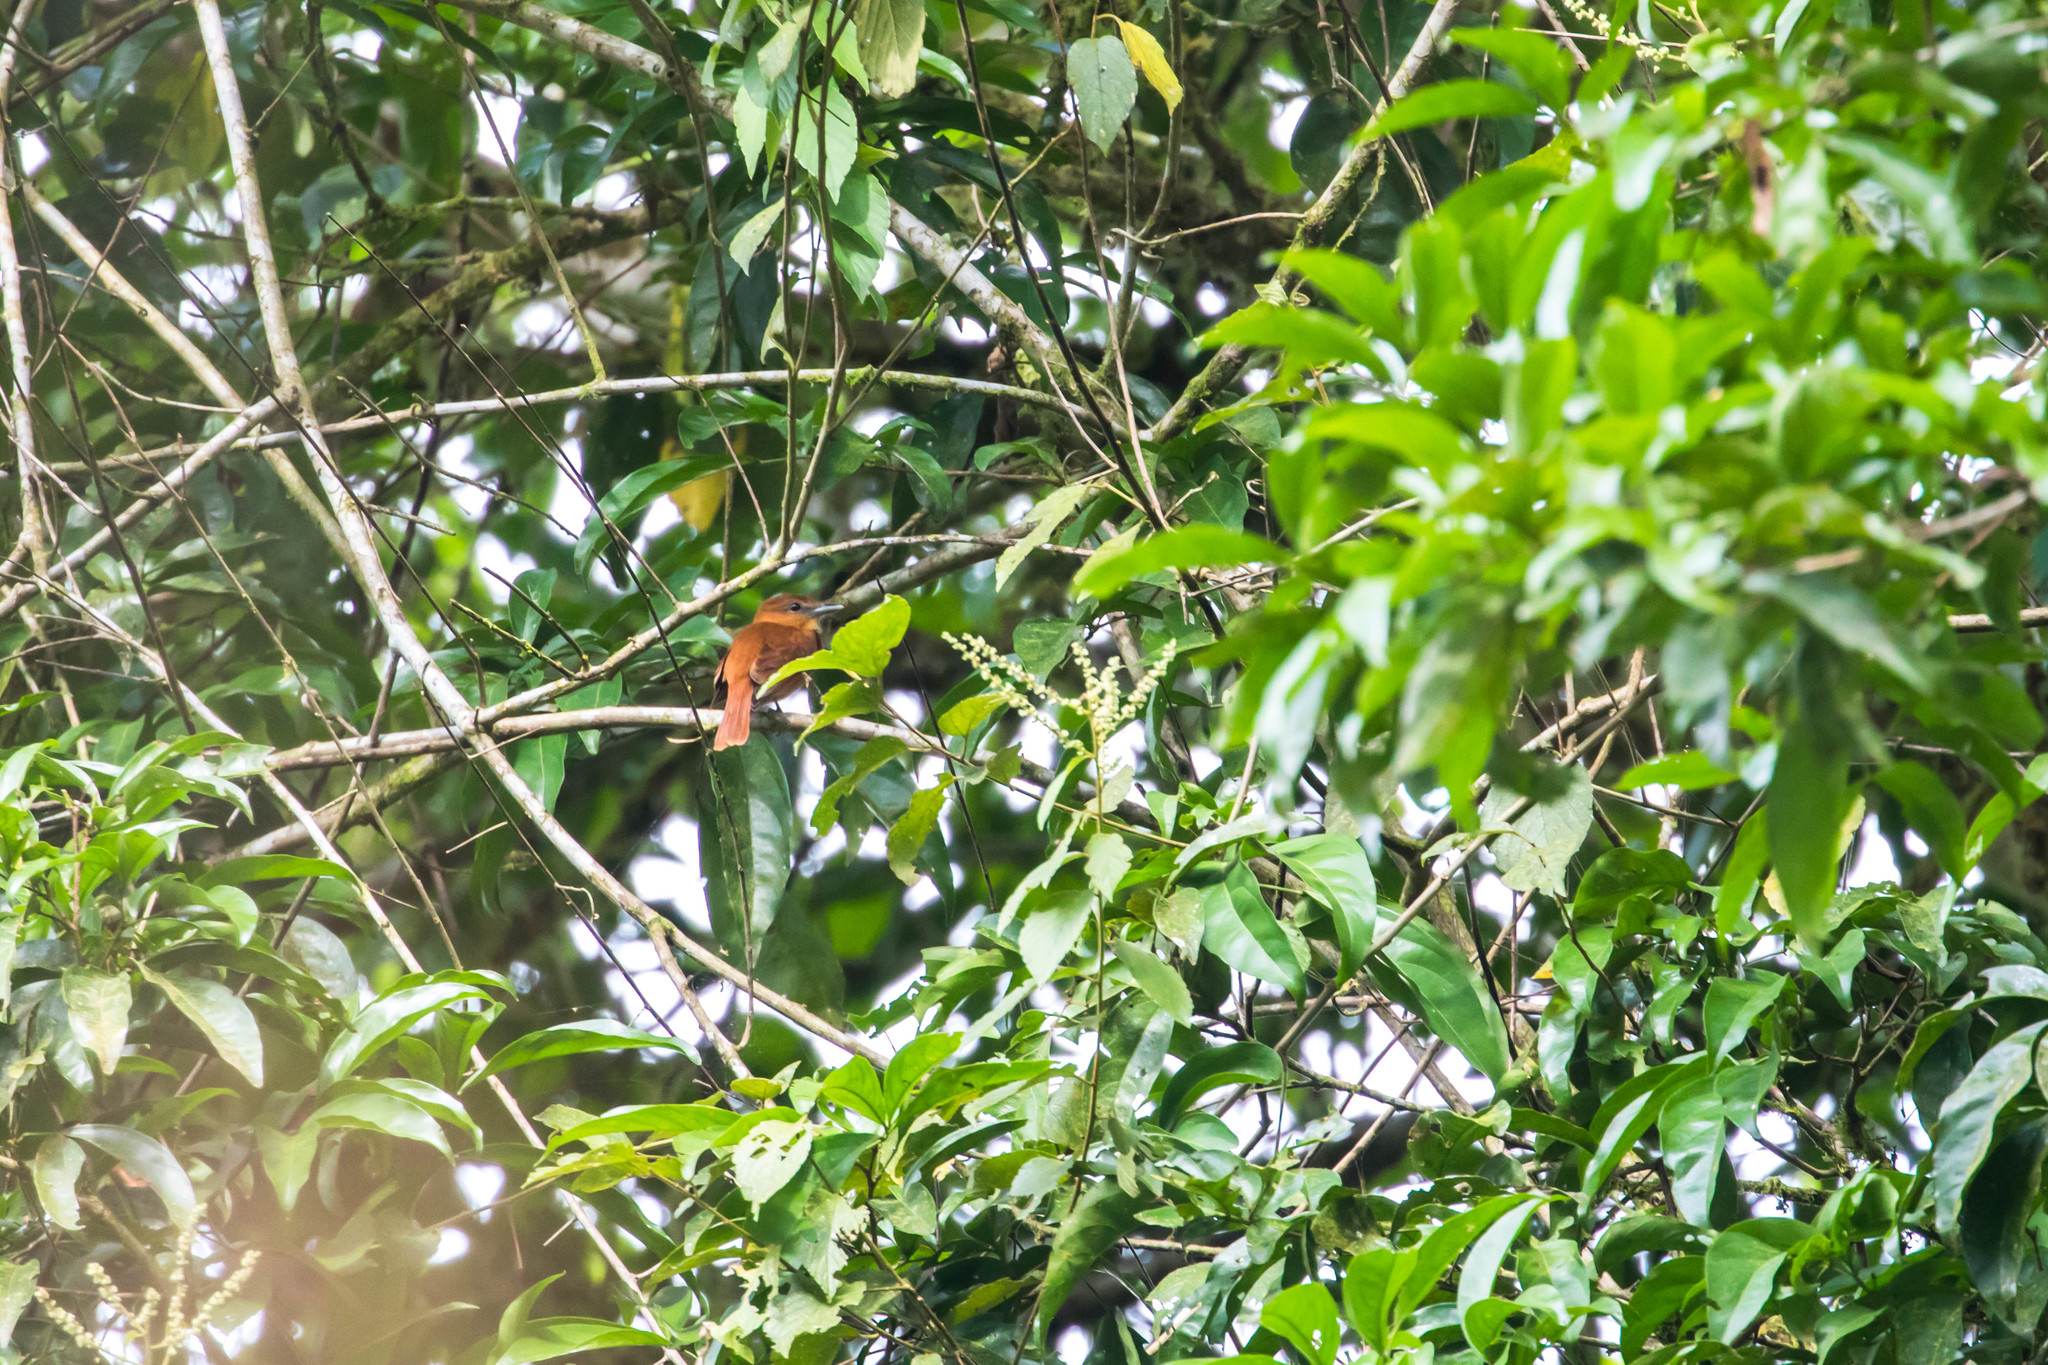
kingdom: Animalia
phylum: Chordata
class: Aves
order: Passeriformes
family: Cotingidae
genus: Pachyramphus
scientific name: Pachyramphus cinnamomeus
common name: Cinnamon becard
